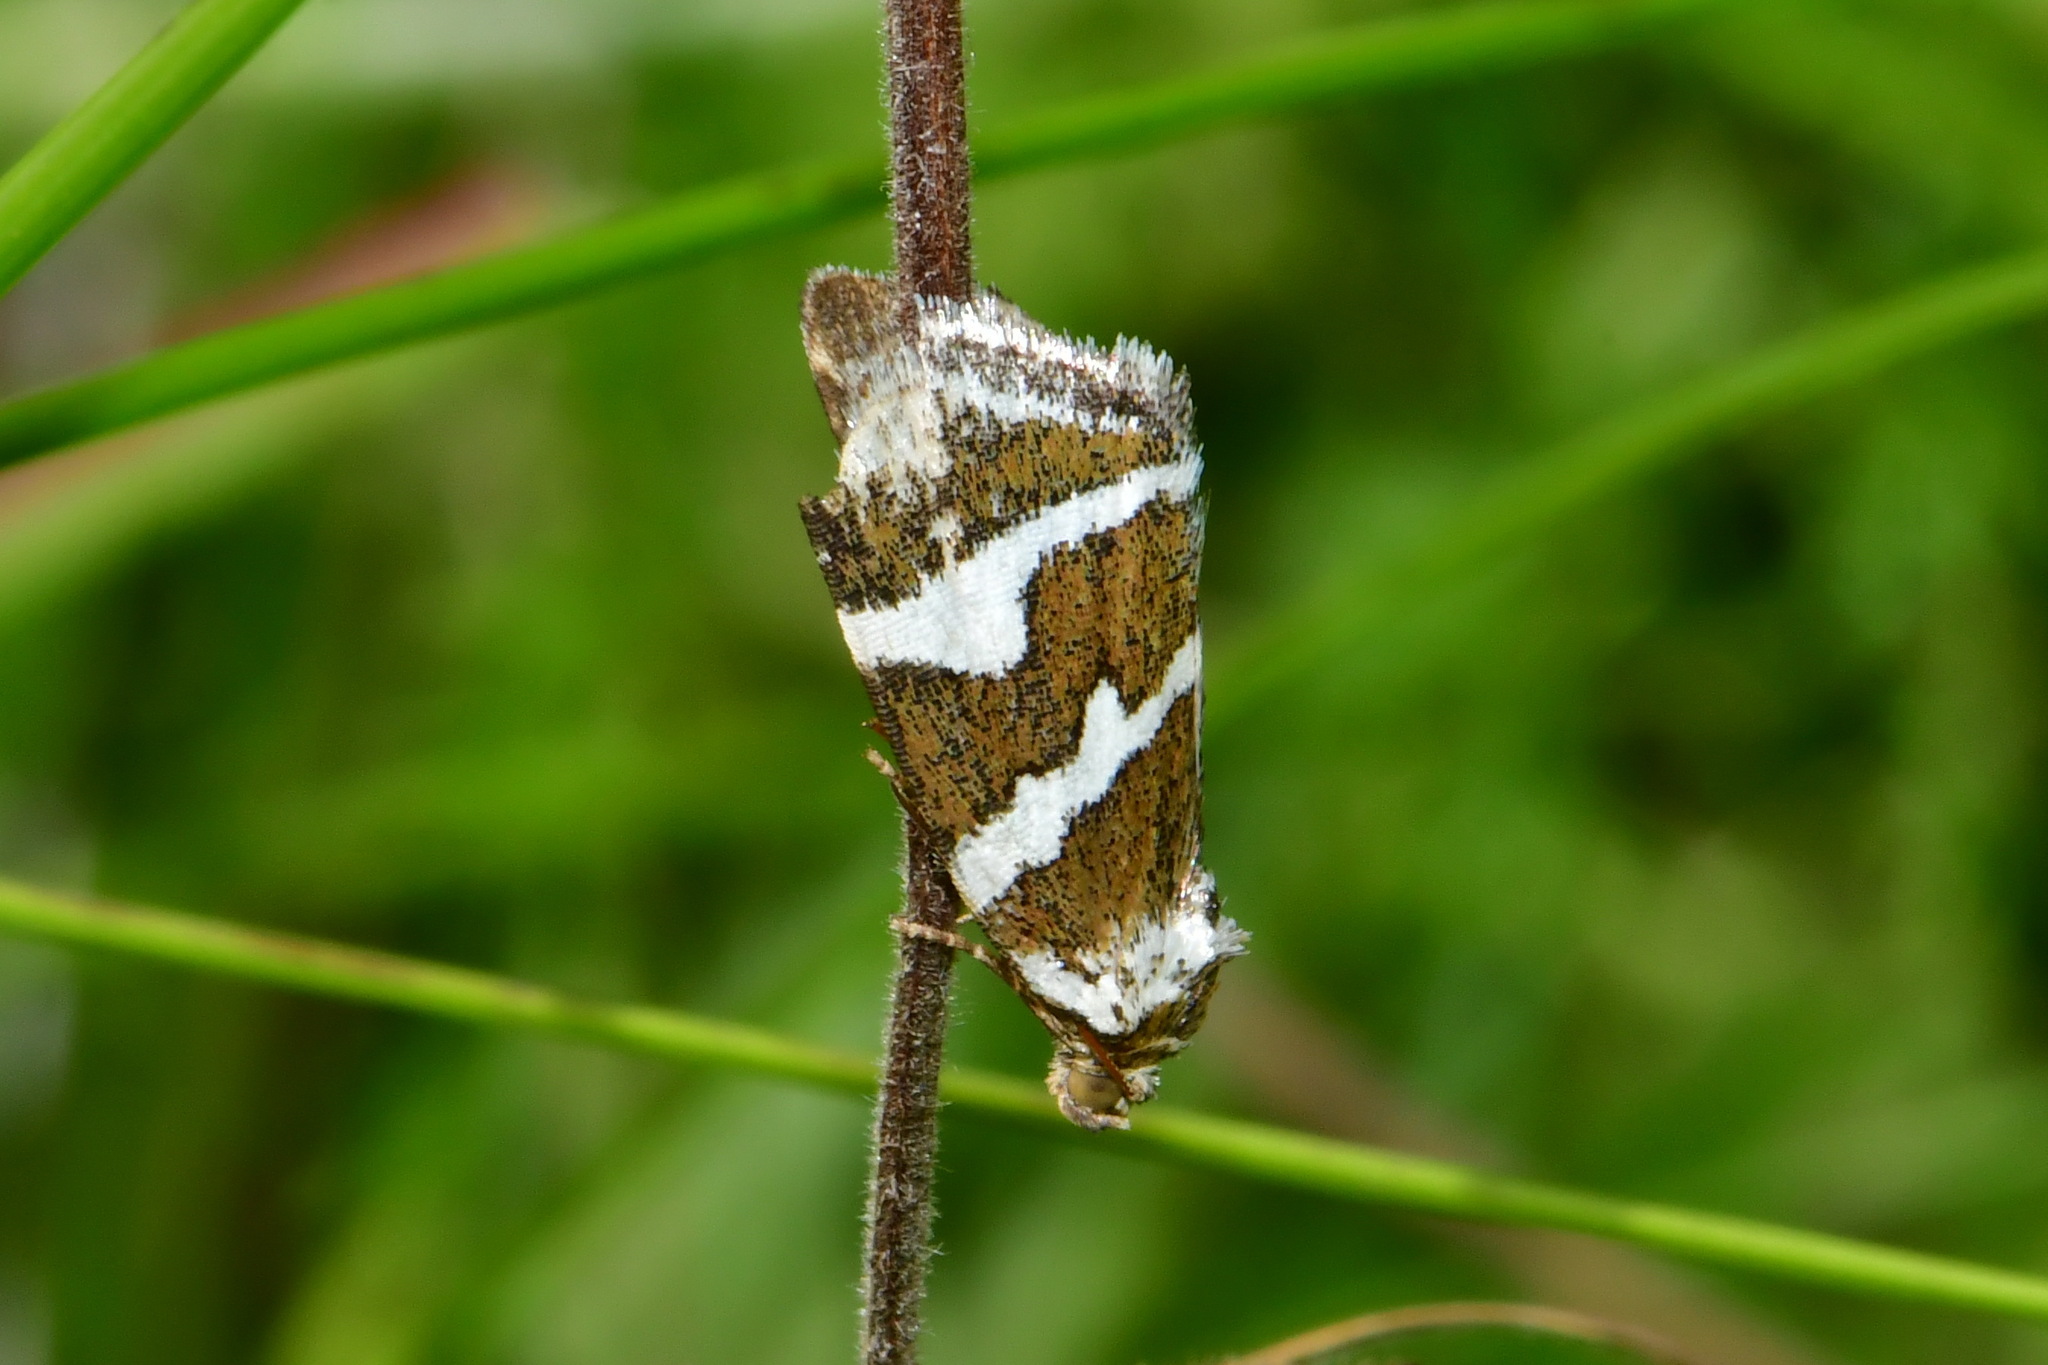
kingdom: Animalia
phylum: Arthropoda
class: Insecta
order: Lepidoptera
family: Noctuidae
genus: Deltote
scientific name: Deltote bankiana
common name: Silver barred
